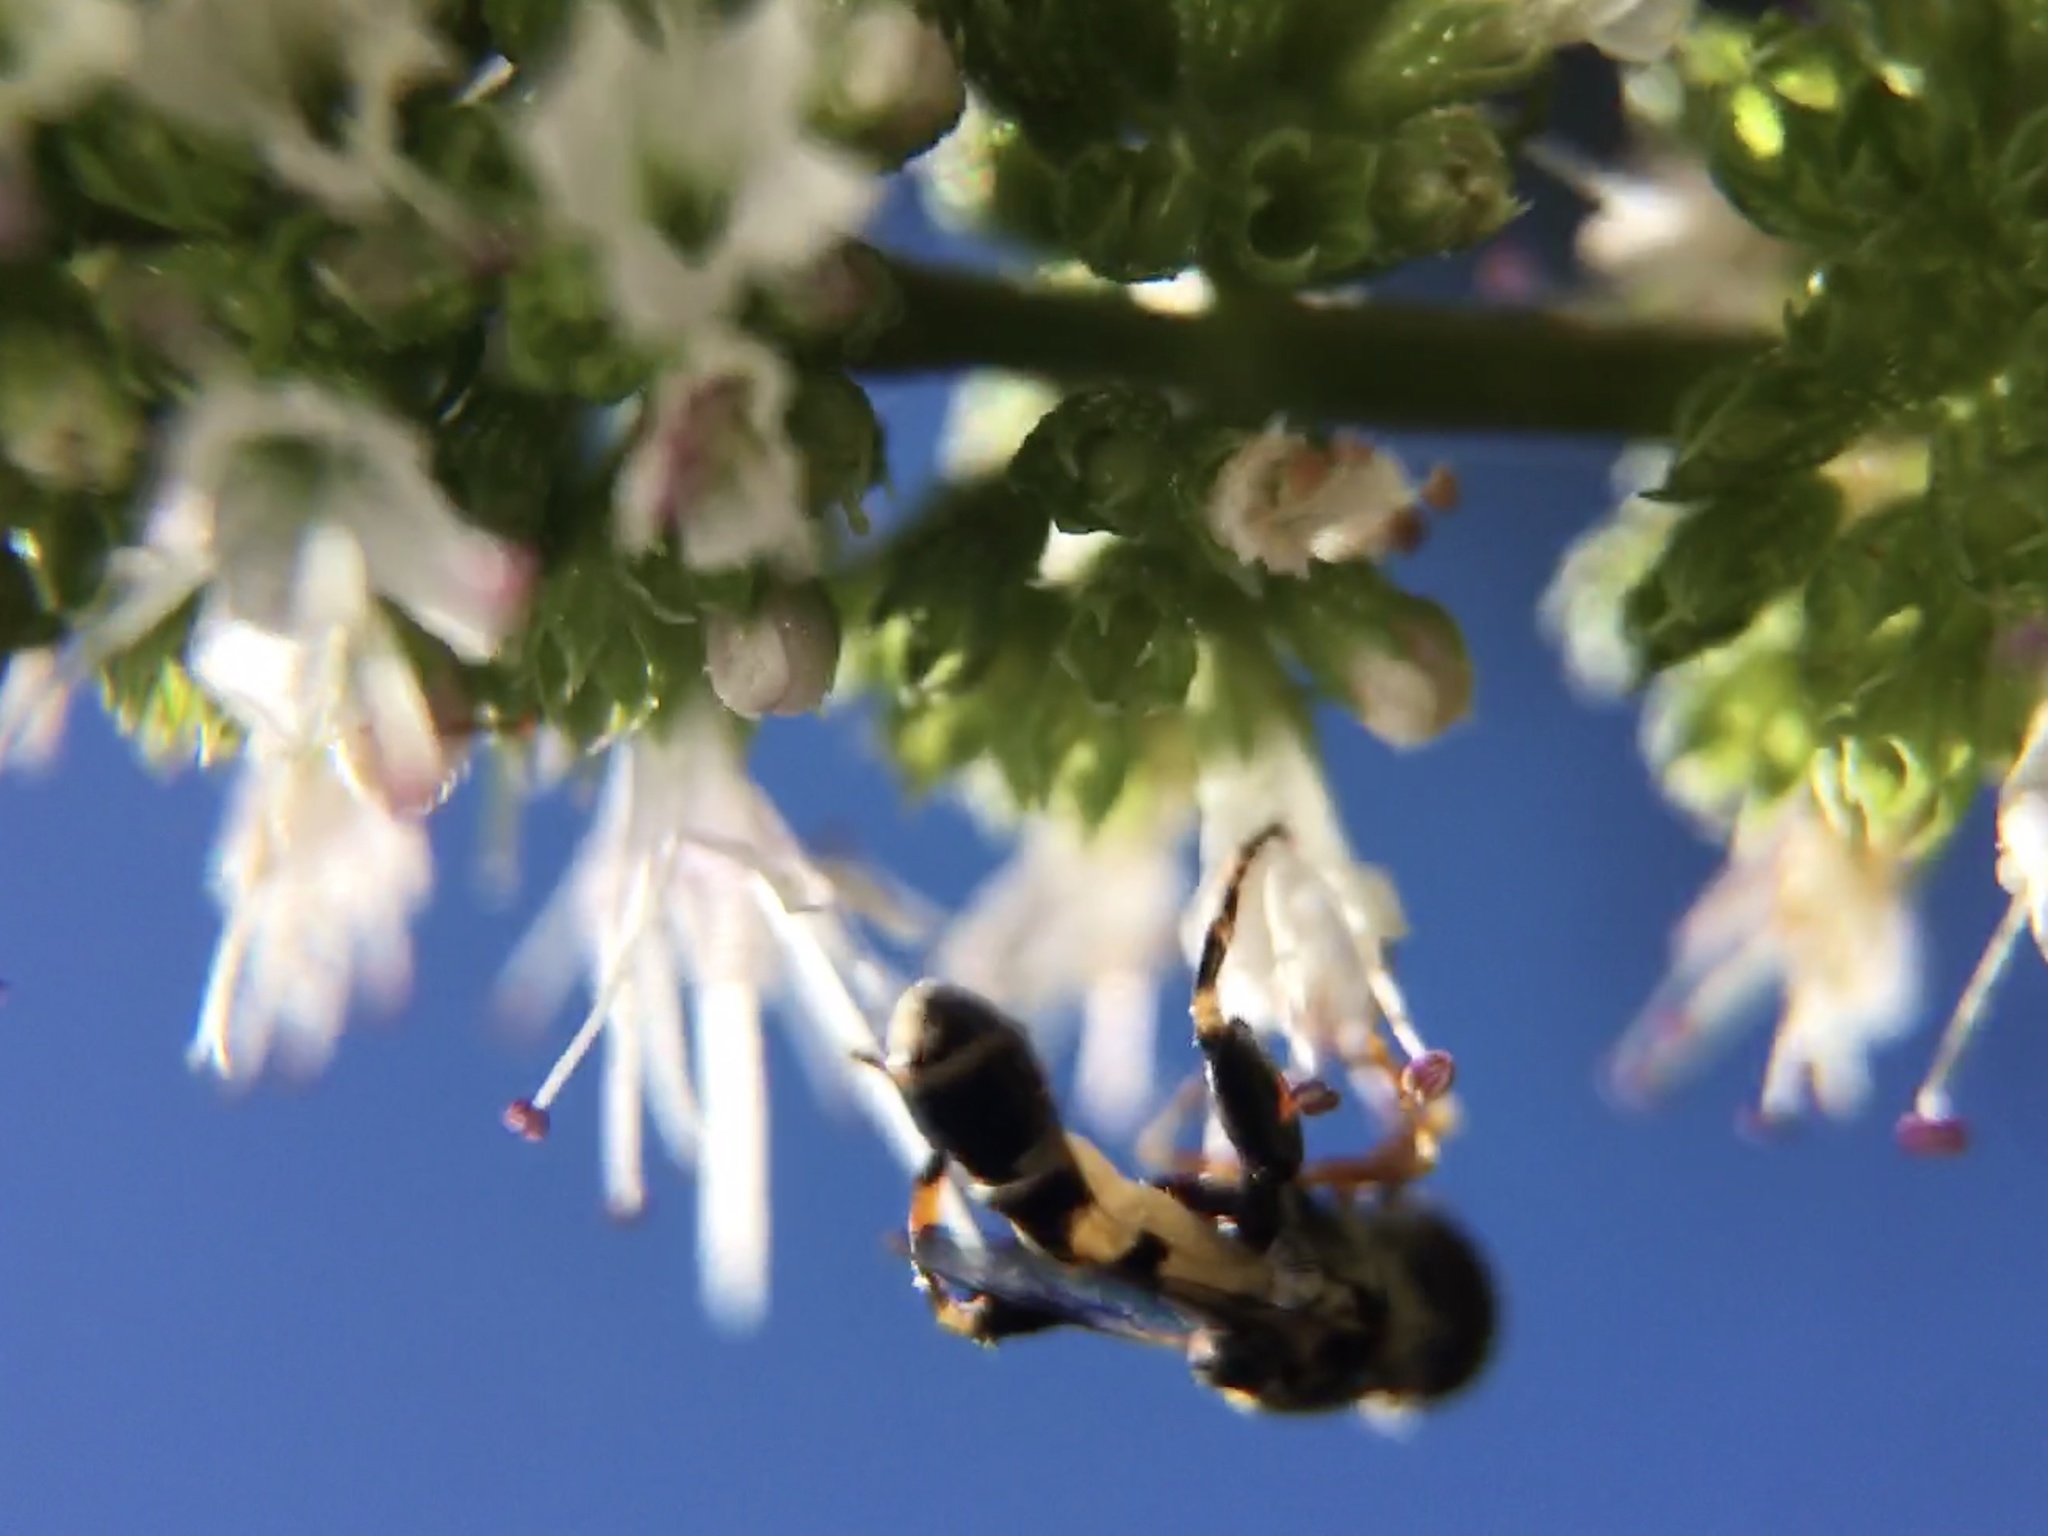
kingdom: Animalia
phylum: Arthropoda
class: Insecta
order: Diptera
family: Syrphidae
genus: Syritta
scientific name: Syritta pipiens
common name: Hover fly
